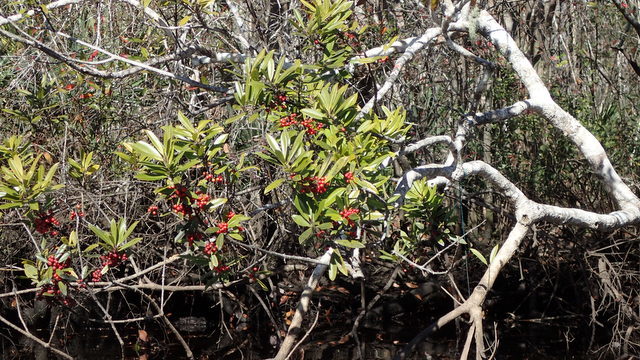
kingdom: Plantae
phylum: Tracheophyta
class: Magnoliopsida
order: Aquifoliales
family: Aquifoliaceae
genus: Ilex
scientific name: Ilex cassine
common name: Dahoon
